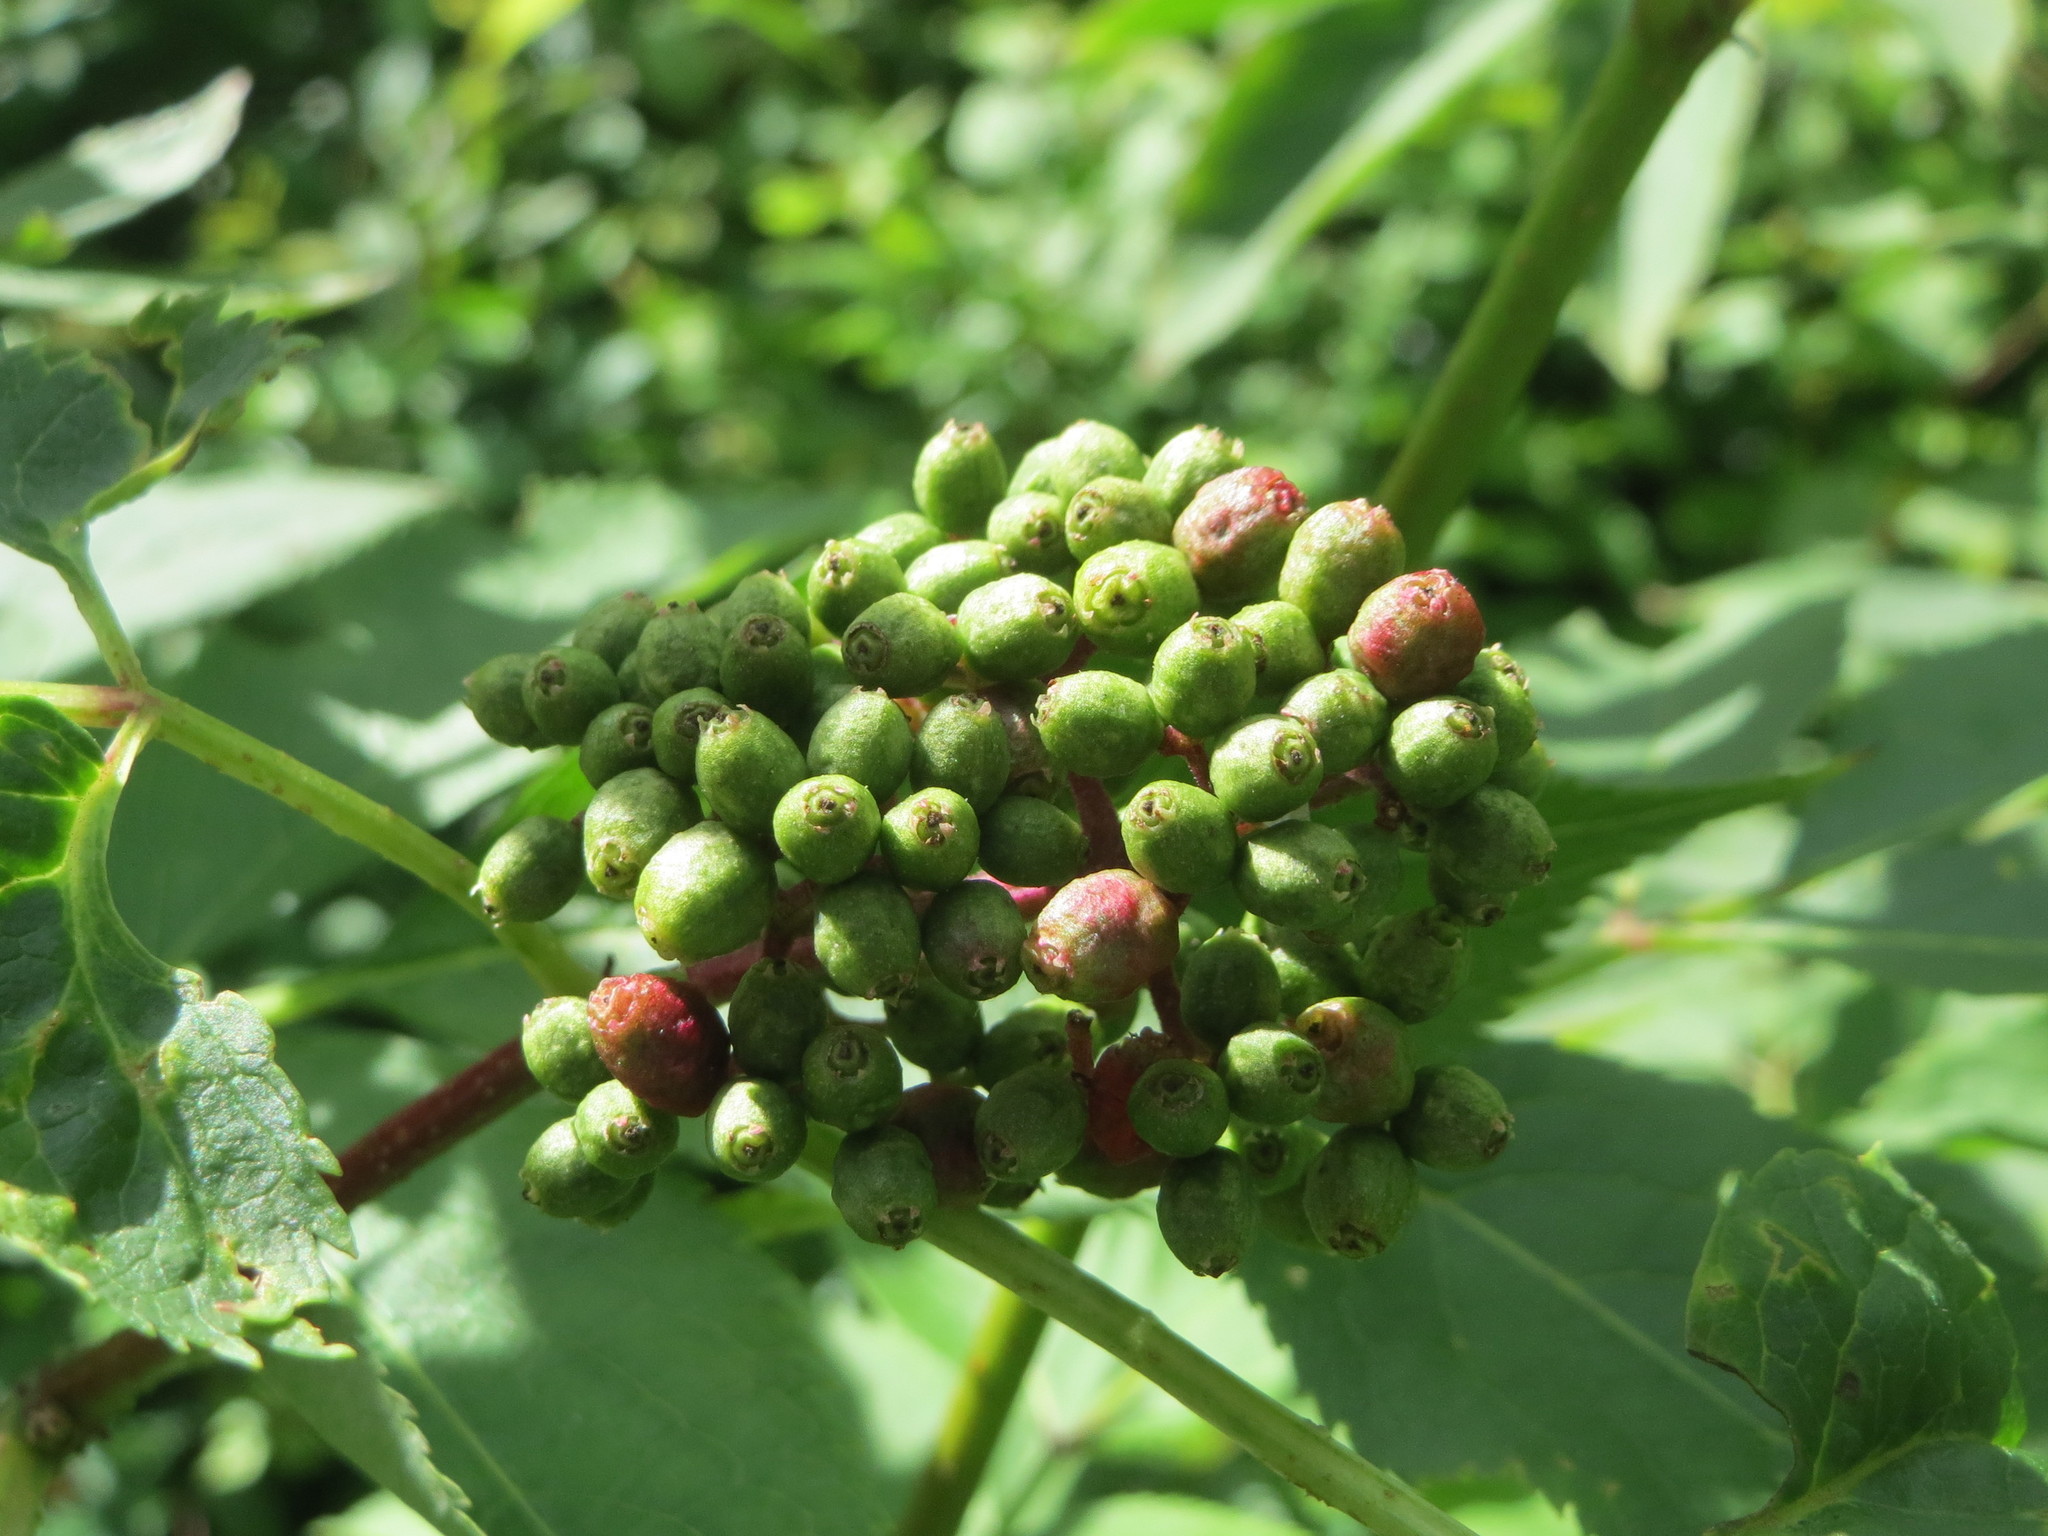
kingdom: Plantae
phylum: Tracheophyta
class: Magnoliopsida
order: Dipsacales
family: Viburnaceae
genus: Sambucus
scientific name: Sambucus racemosa
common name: Red-berried elder
